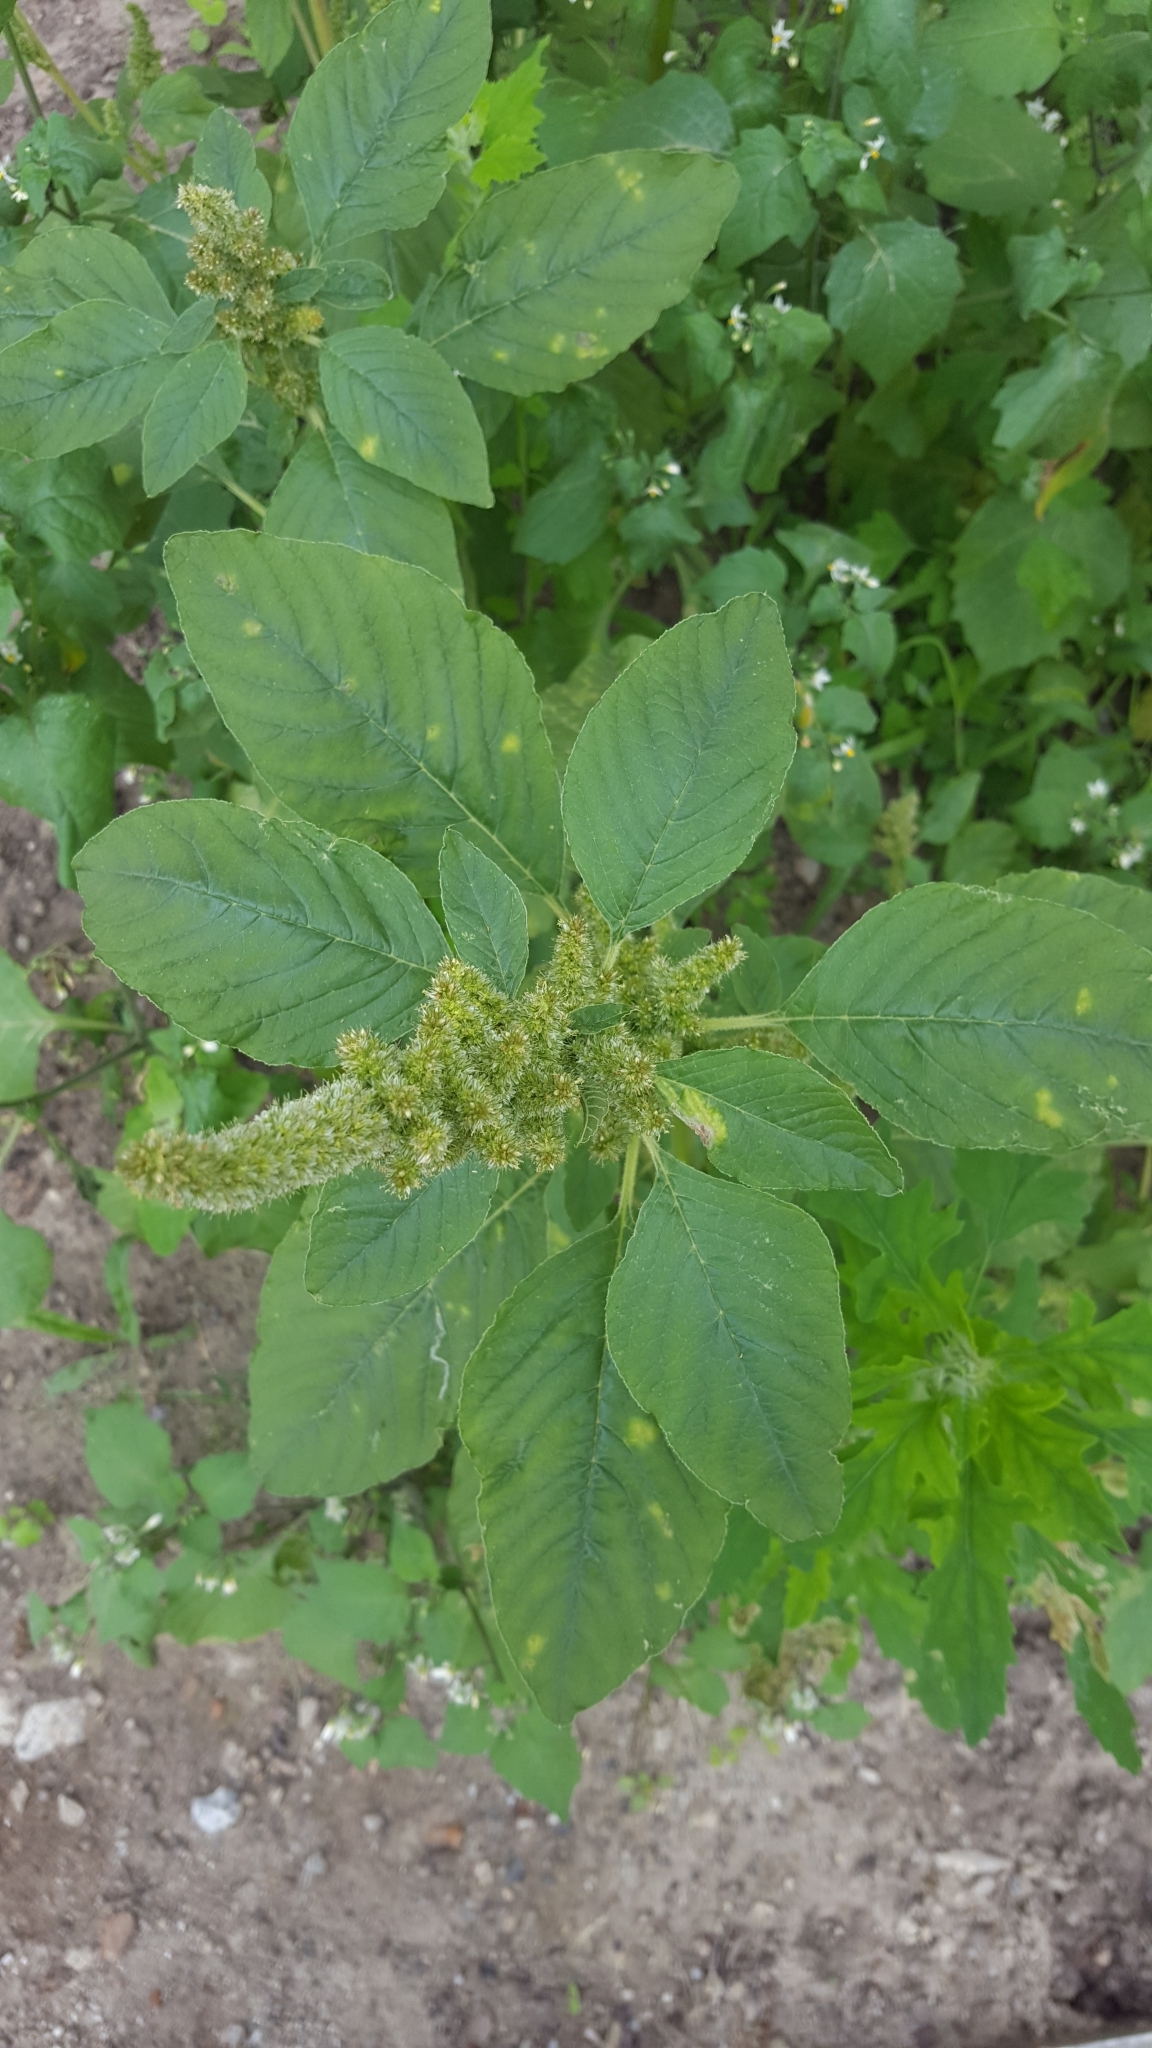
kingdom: Plantae
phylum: Tracheophyta
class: Magnoliopsida
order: Caryophyllales
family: Amaranthaceae
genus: Amaranthus
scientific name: Amaranthus retroflexus
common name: Redroot amaranth
